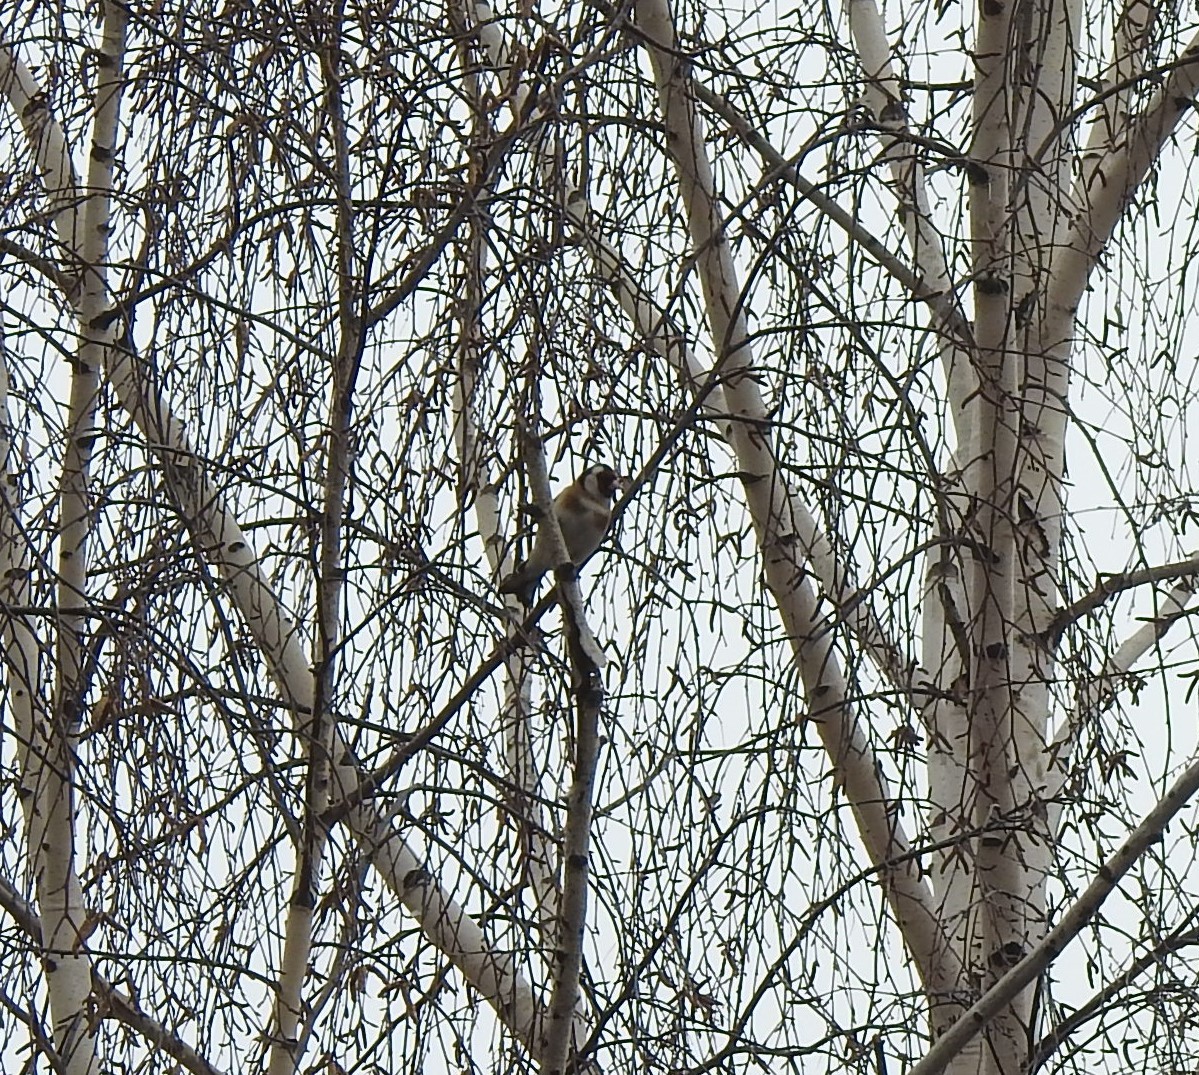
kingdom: Animalia
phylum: Chordata
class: Aves
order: Passeriformes
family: Fringillidae
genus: Carduelis
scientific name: Carduelis carduelis
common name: European goldfinch
